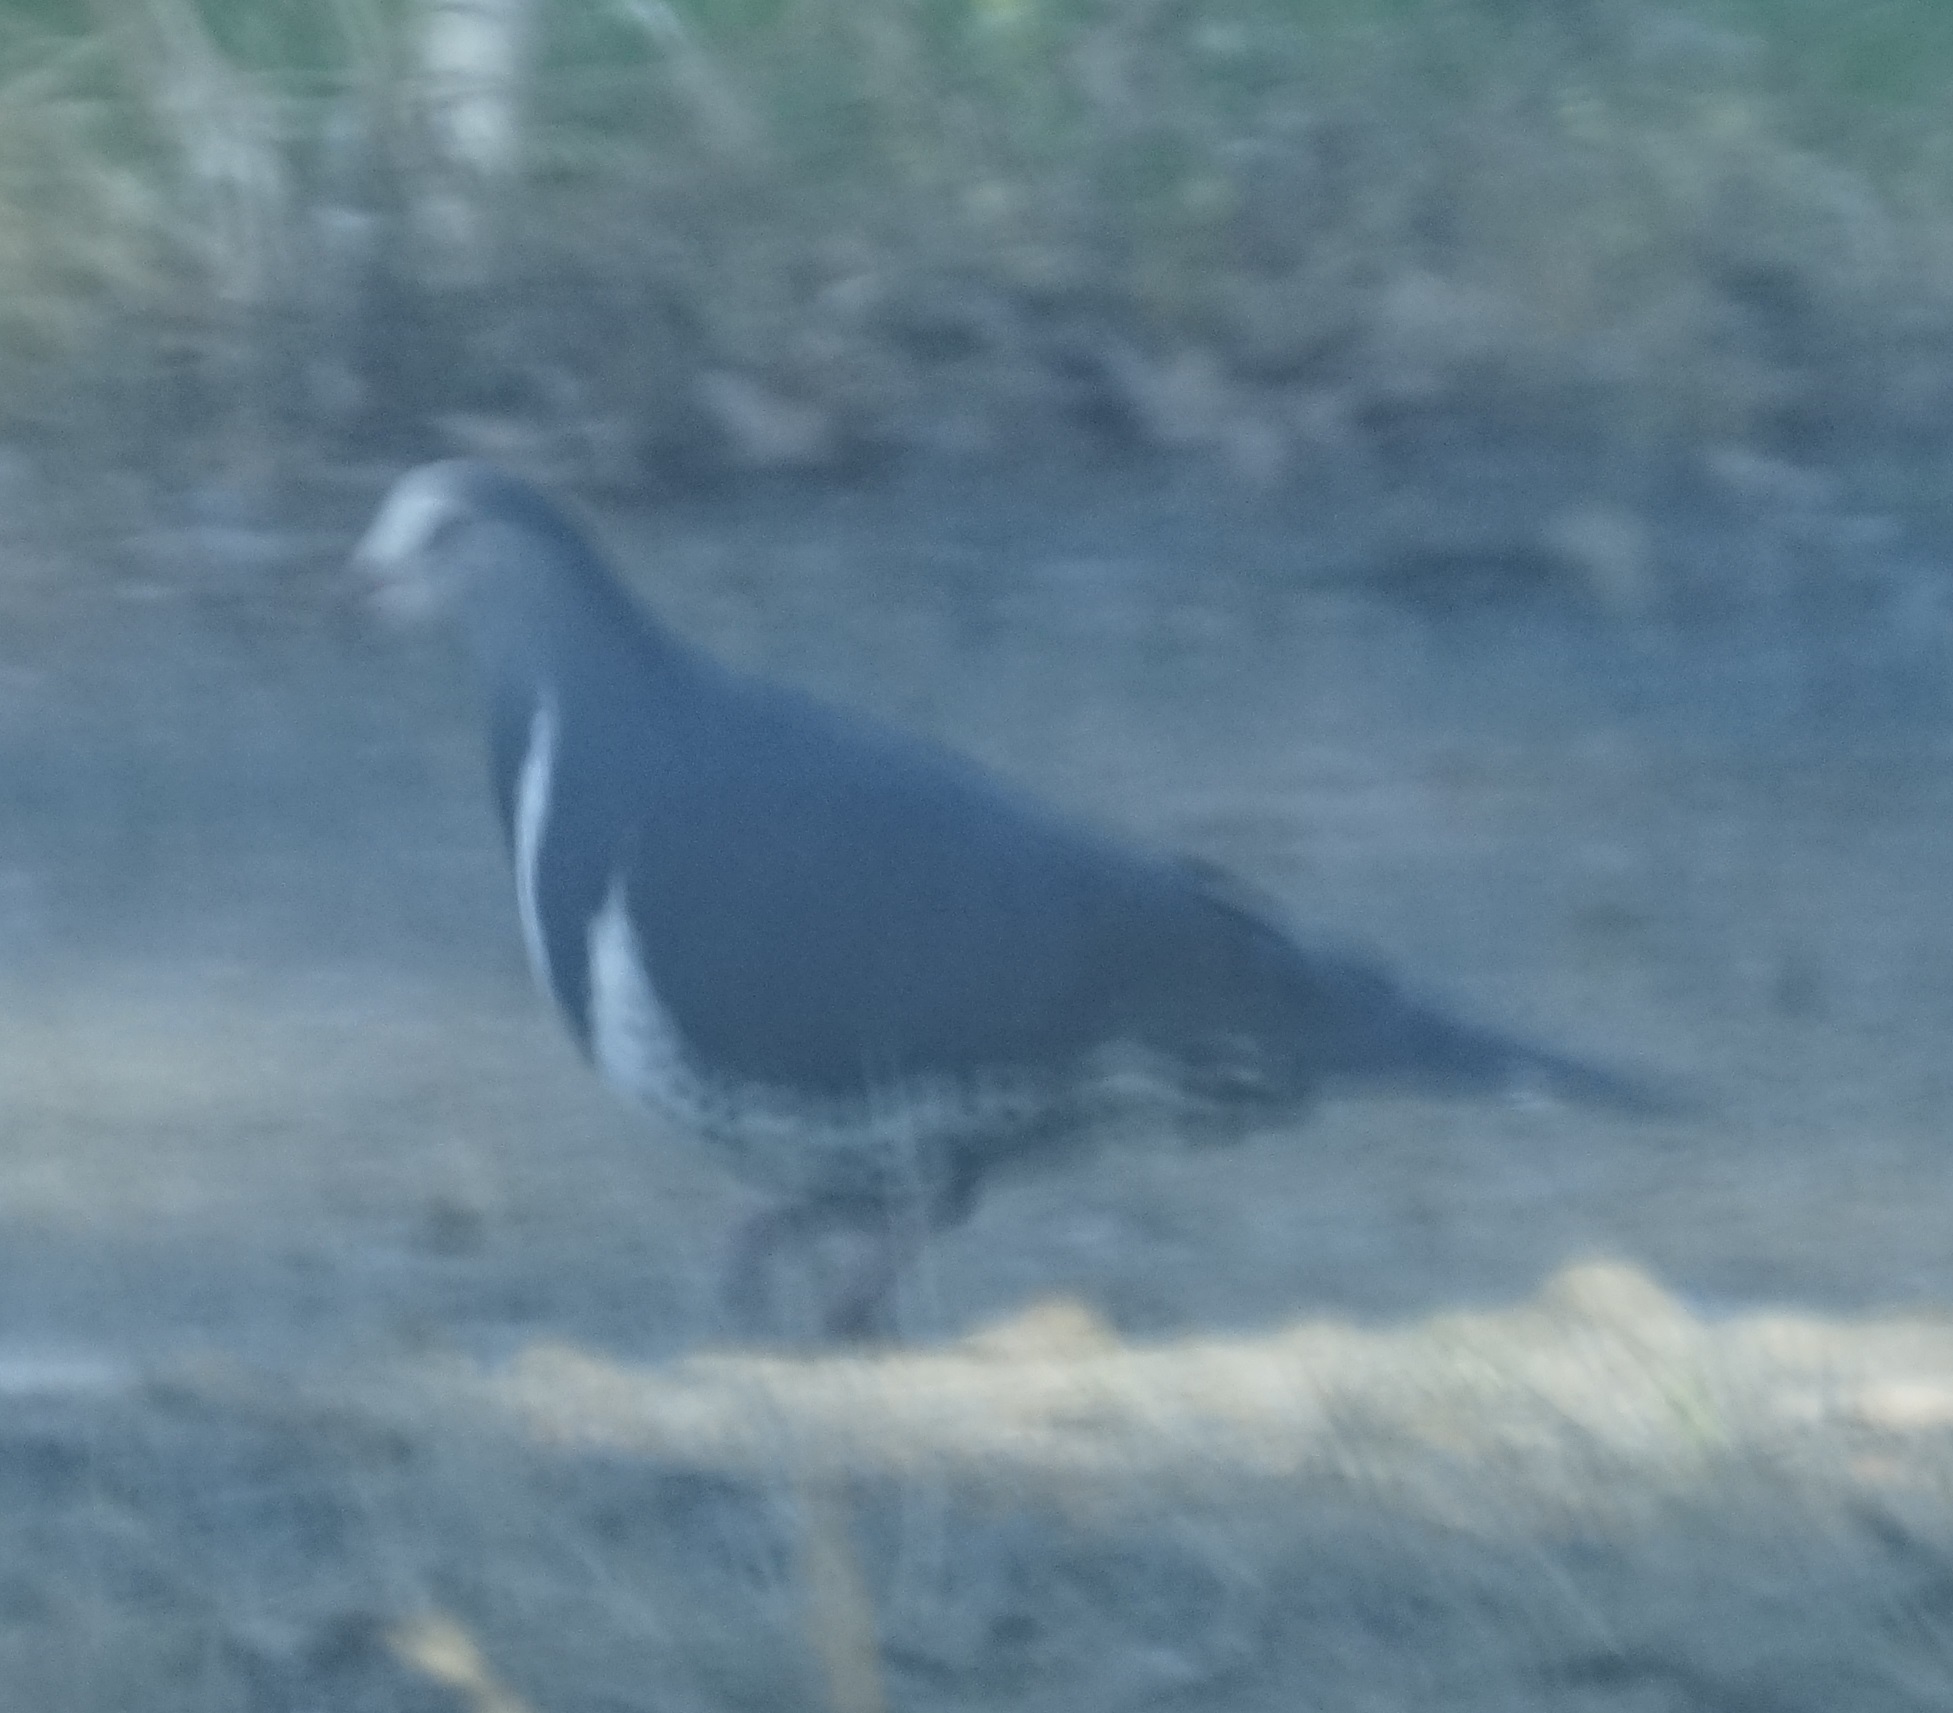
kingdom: Animalia
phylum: Chordata
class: Aves
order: Columbiformes
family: Columbidae
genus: Leucosarcia
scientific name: Leucosarcia melanoleuca
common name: Wonga pigeon
